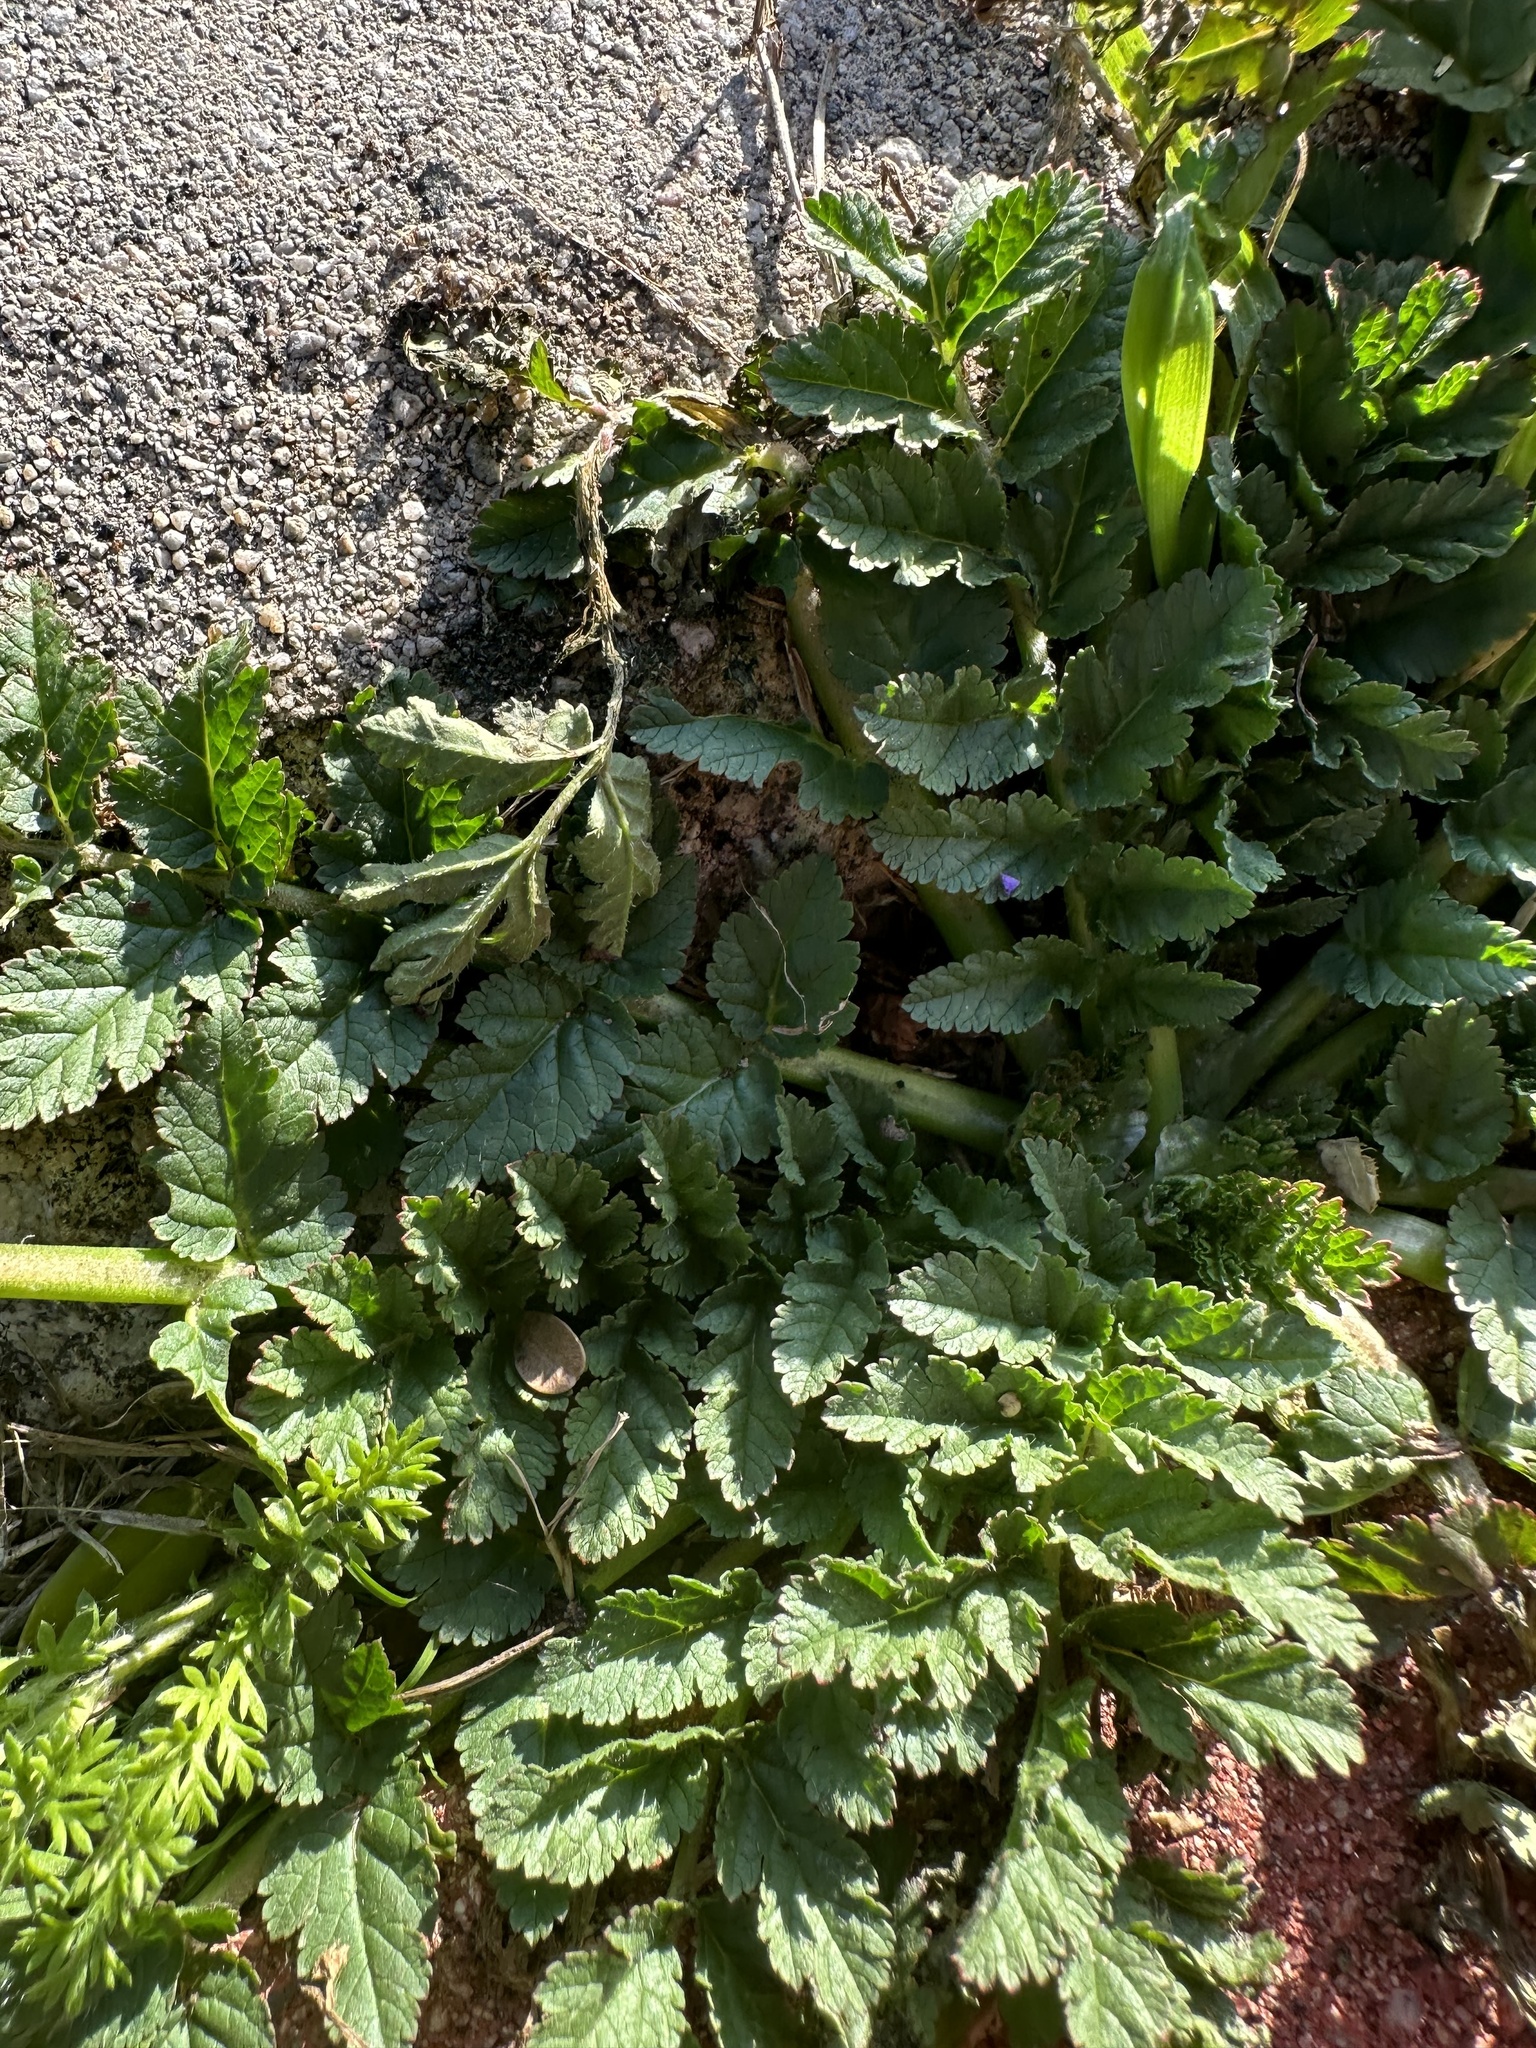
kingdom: Plantae
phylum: Tracheophyta
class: Magnoliopsida
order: Geraniales
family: Geraniaceae
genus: Erodium
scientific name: Erodium moschatum
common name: Musk stork's-bill
